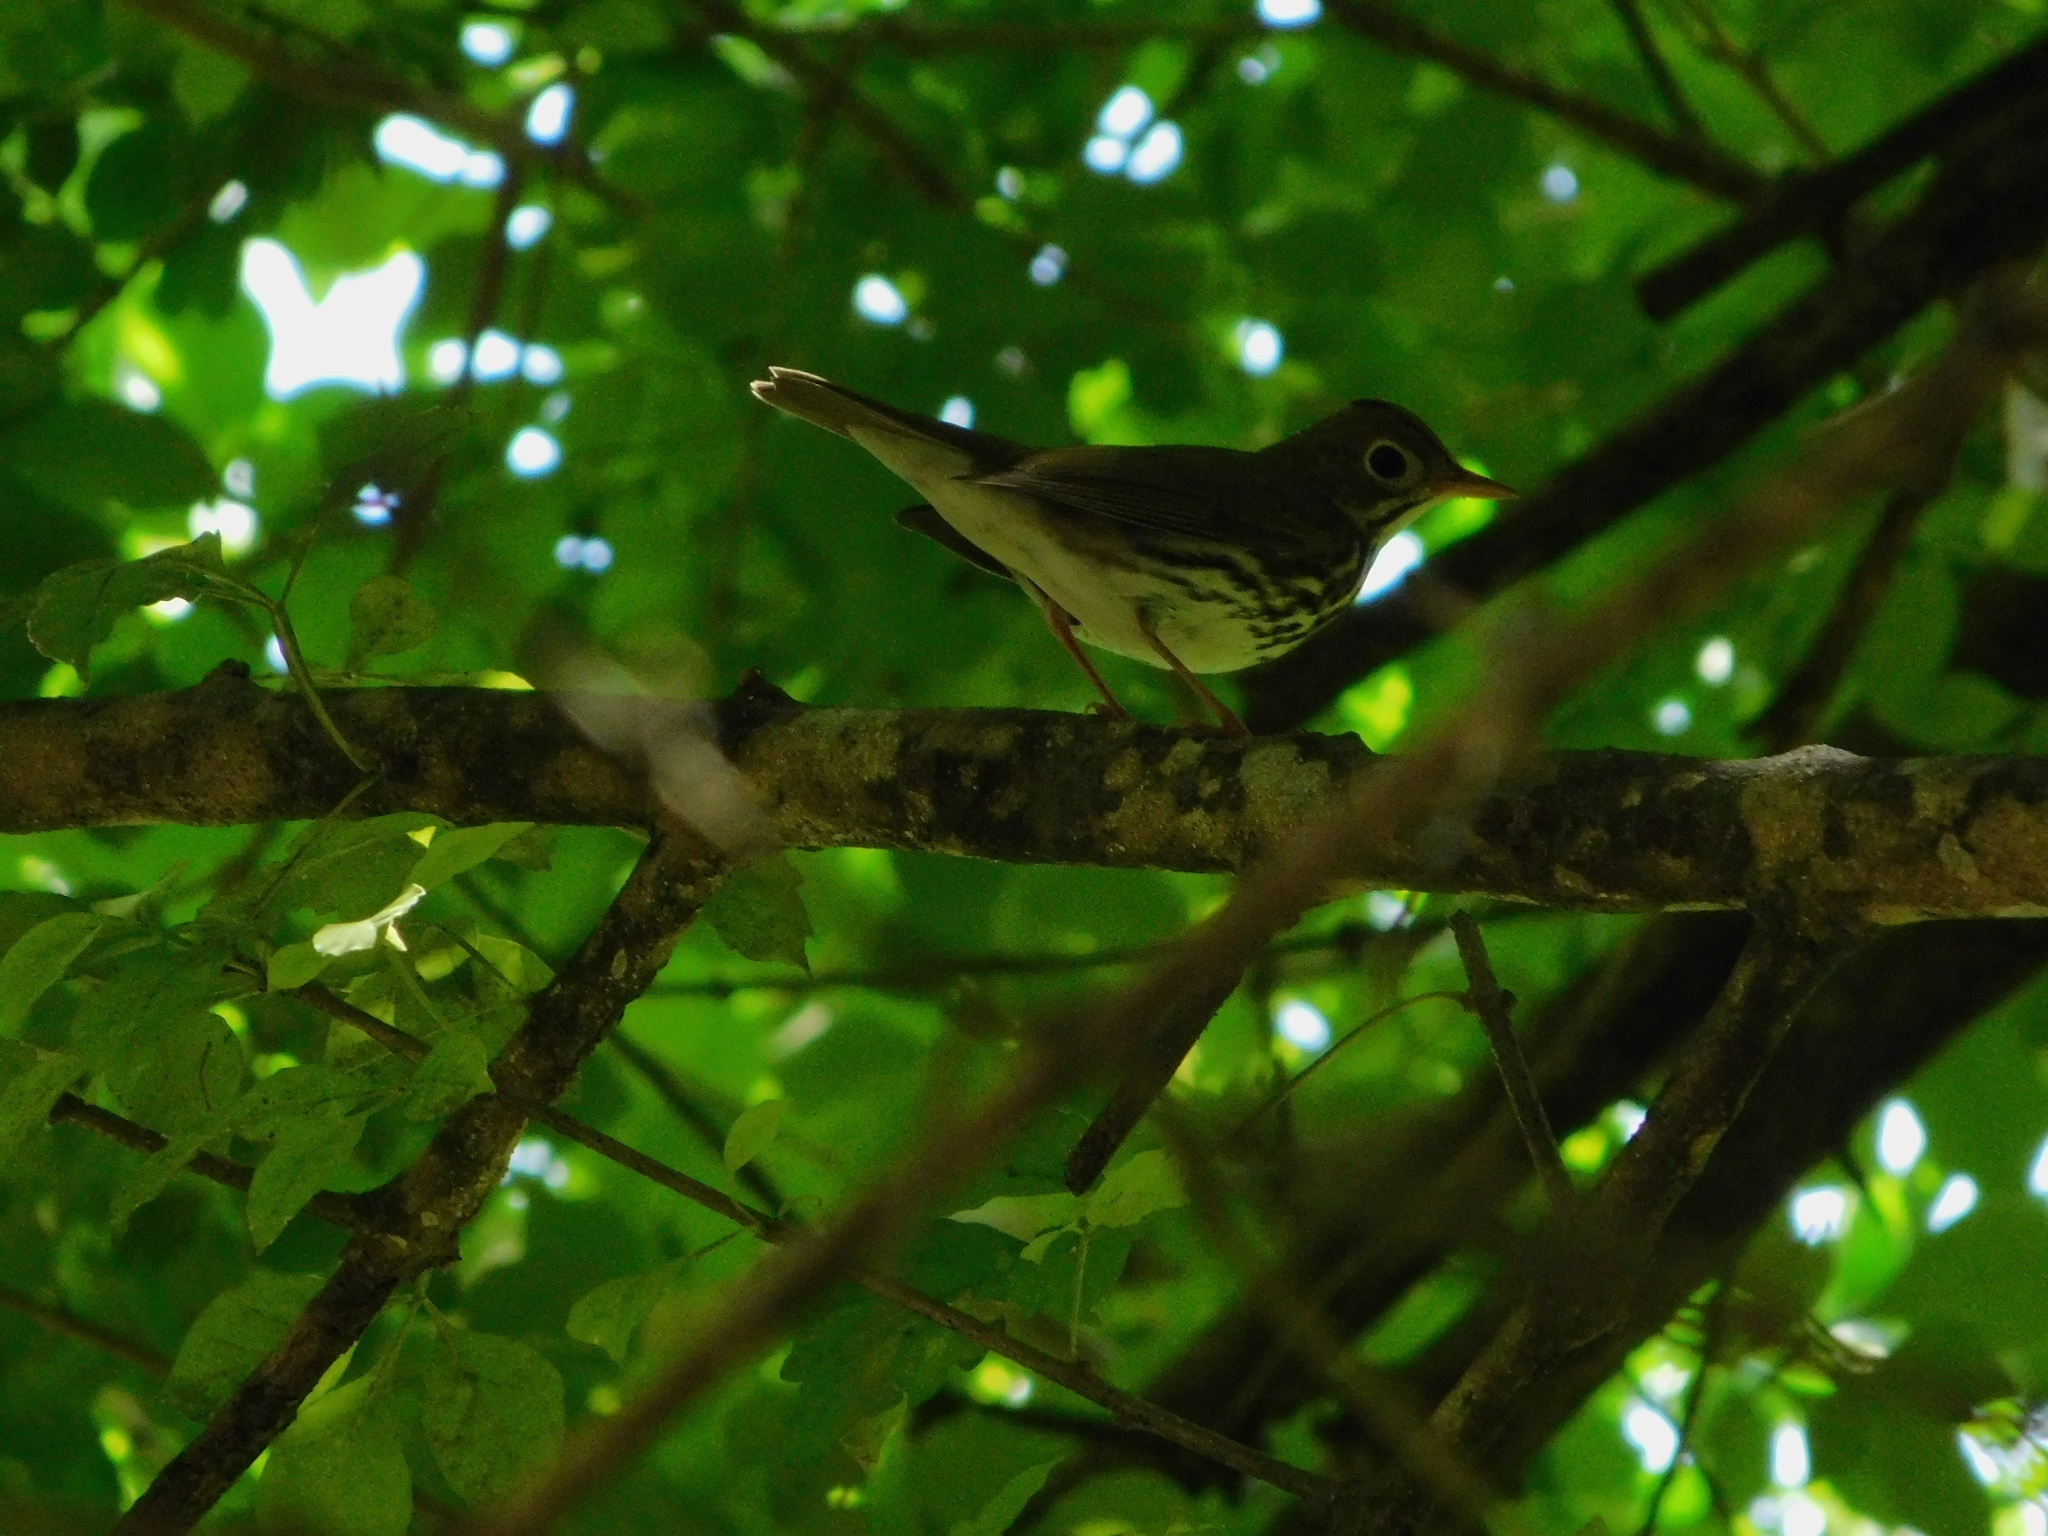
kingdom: Animalia
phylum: Chordata
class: Aves
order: Passeriformes
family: Parulidae
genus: Seiurus
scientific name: Seiurus aurocapilla
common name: Ovenbird
